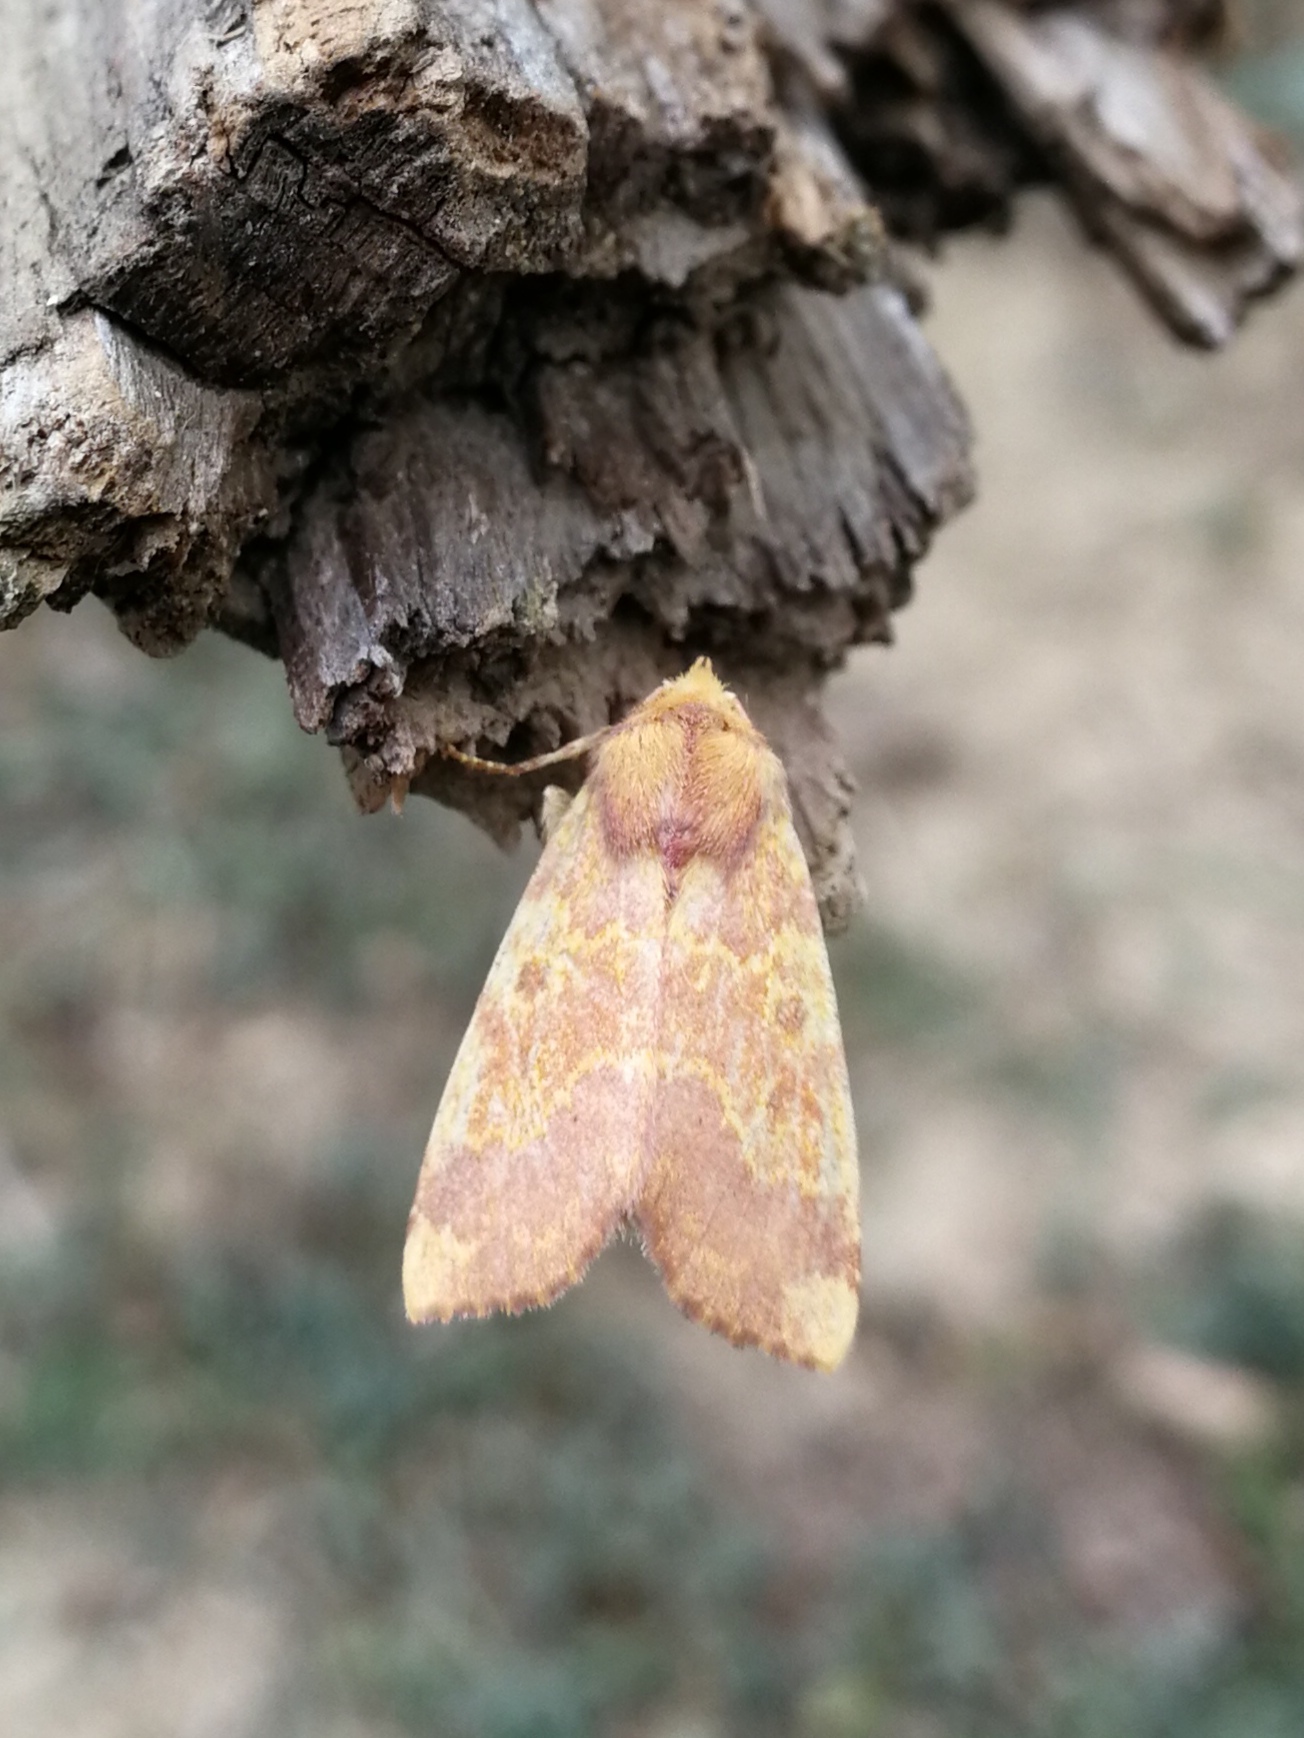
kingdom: Animalia
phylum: Arthropoda
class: Insecta
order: Lepidoptera
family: Noctuidae
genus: Tiliacea
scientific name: Tiliacea aurago
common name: Barred sallow
